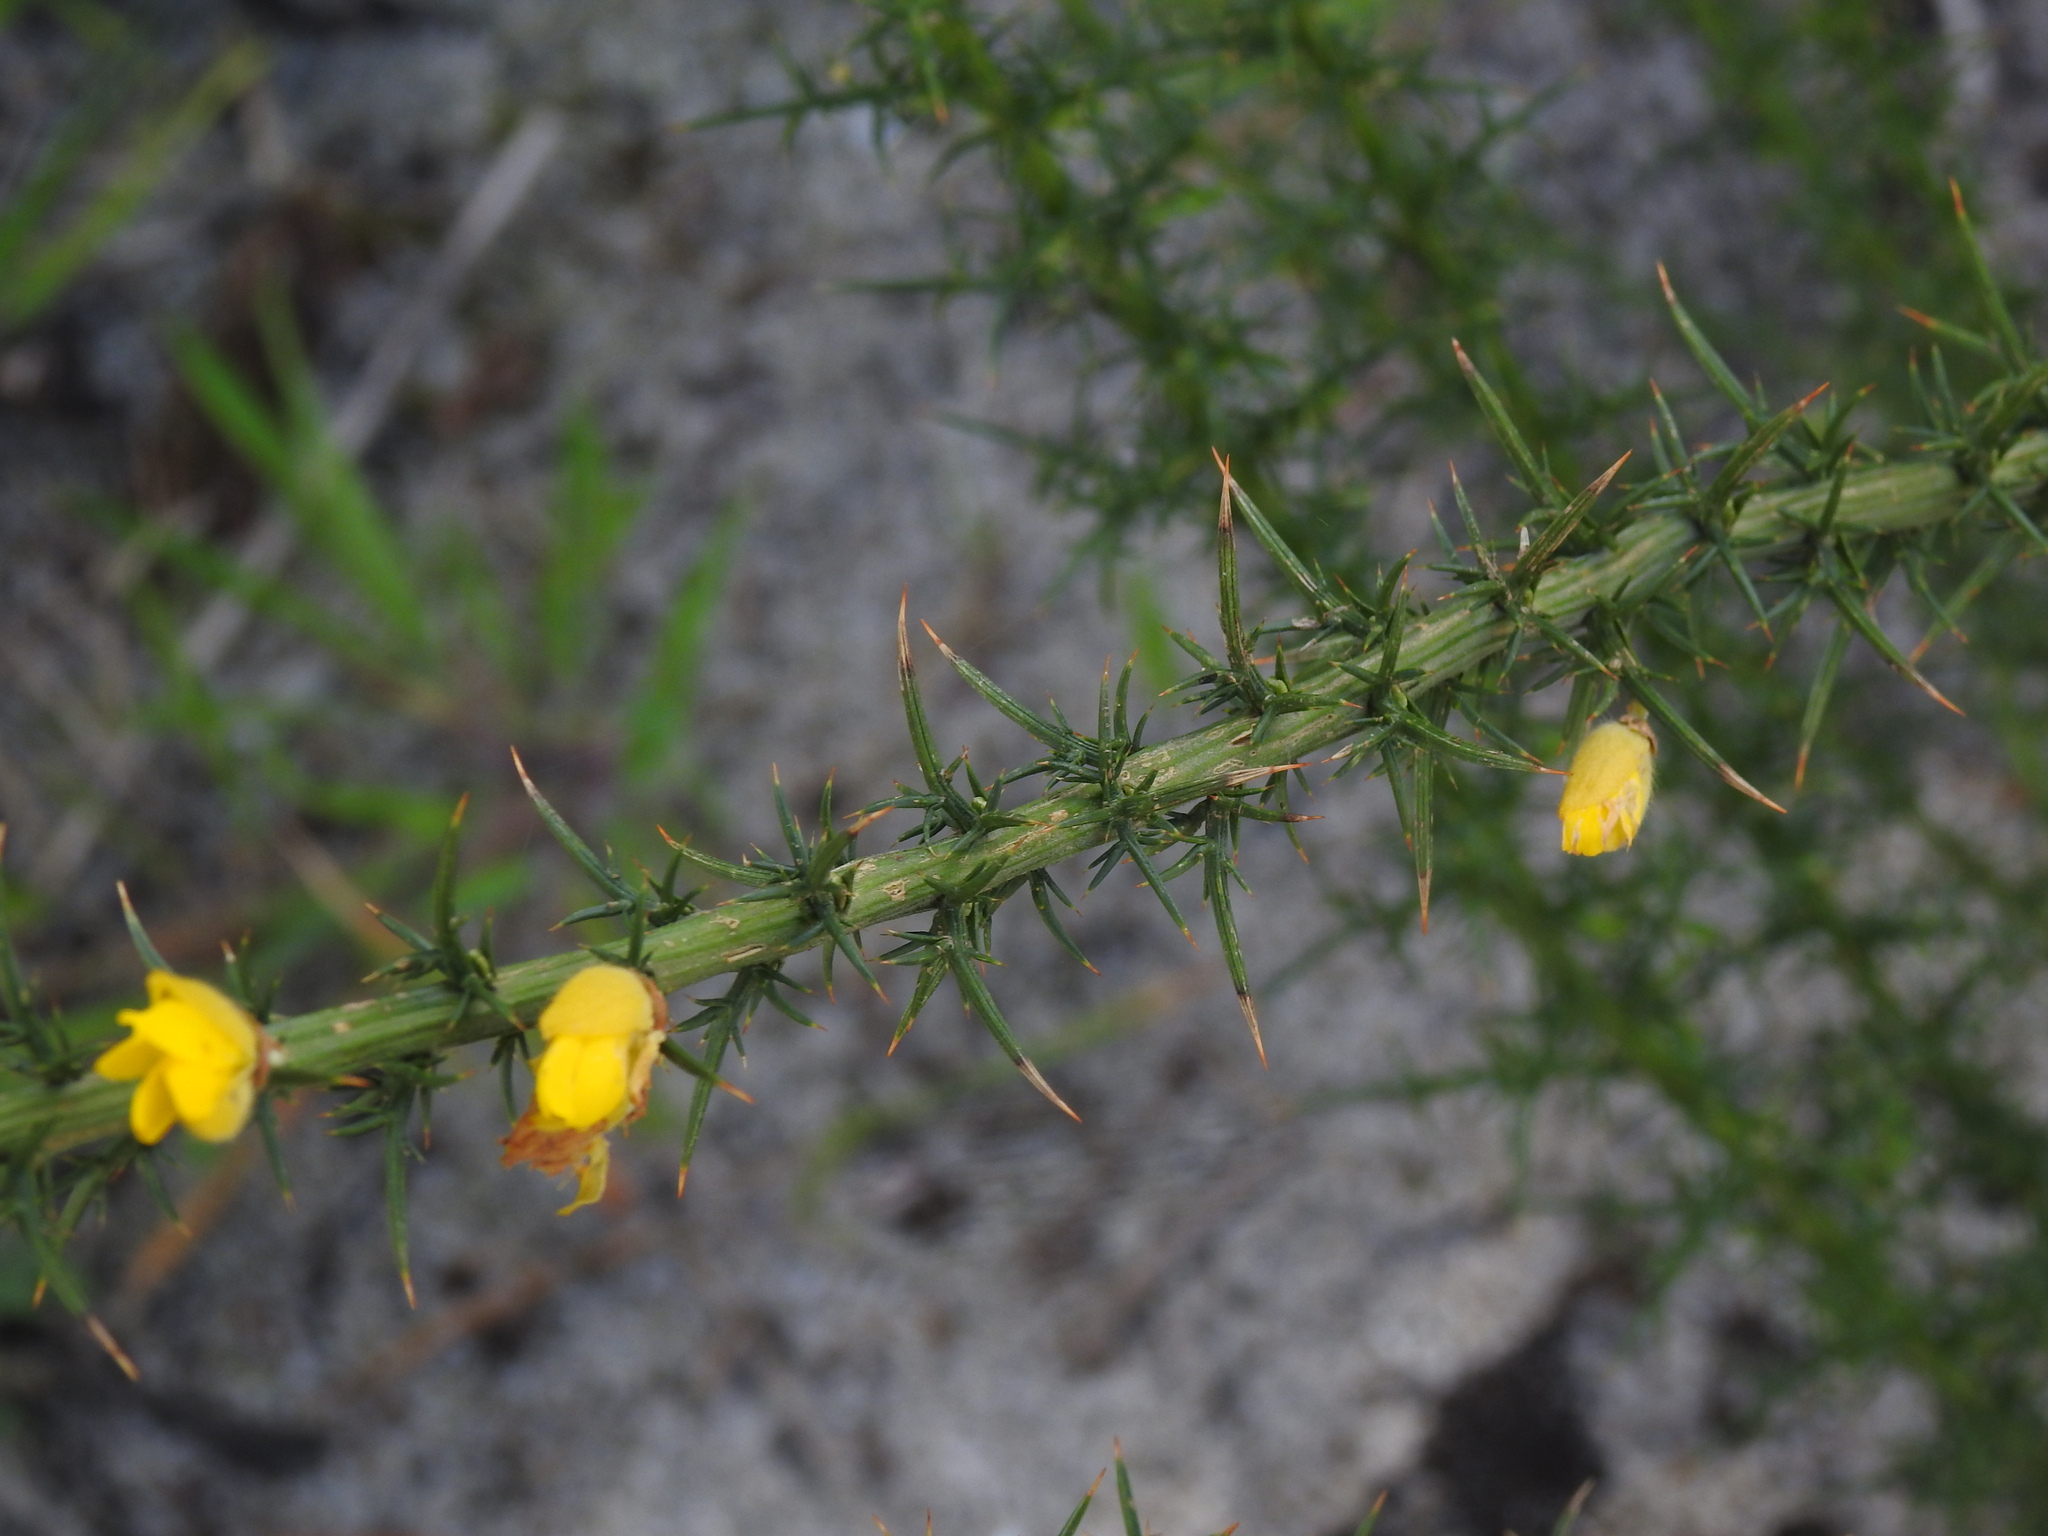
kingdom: Plantae
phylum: Tracheophyta
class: Magnoliopsida
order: Fabales
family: Fabaceae
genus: Ulex
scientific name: Ulex europaeus
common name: Common gorse
